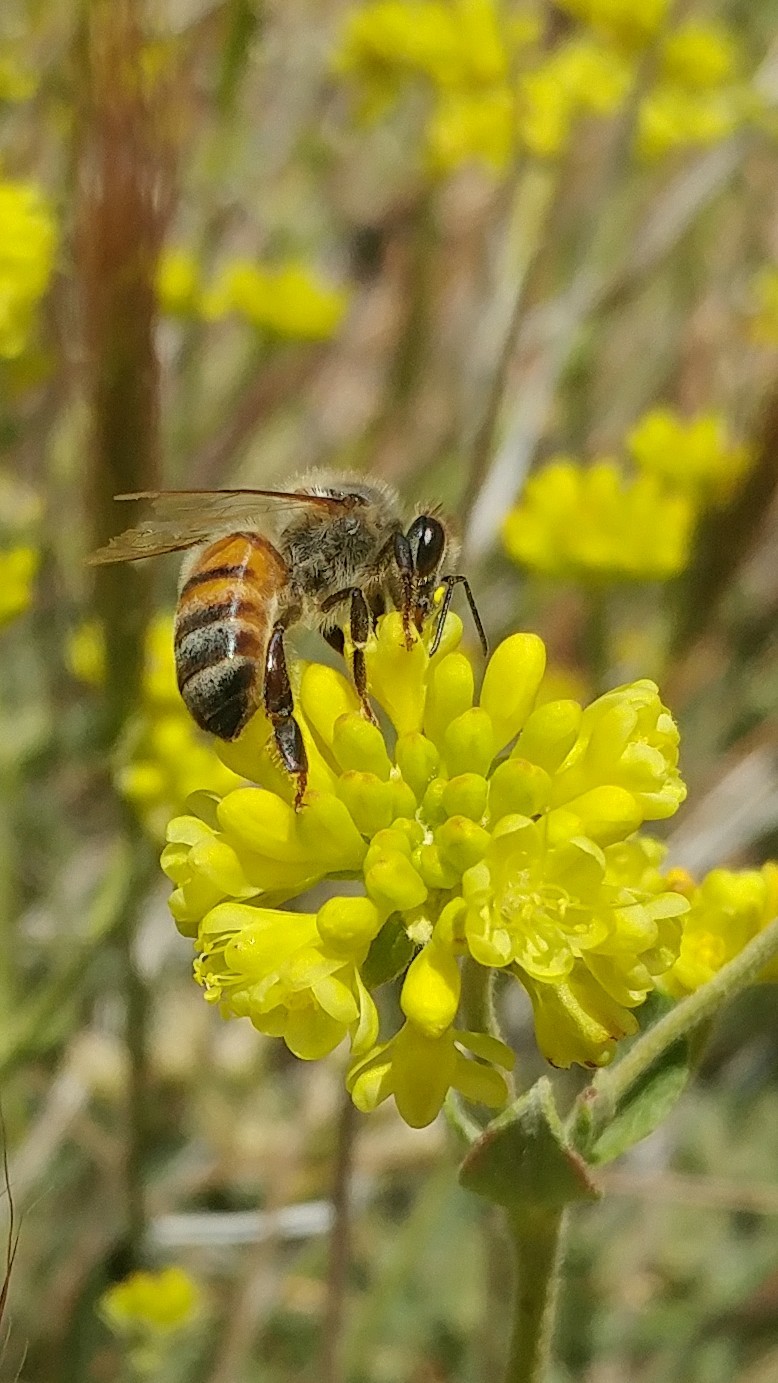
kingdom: Animalia
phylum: Arthropoda
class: Insecta
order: Hymenoptera
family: Apidae
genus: Apis
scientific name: Apis mellifera
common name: Honey bee
